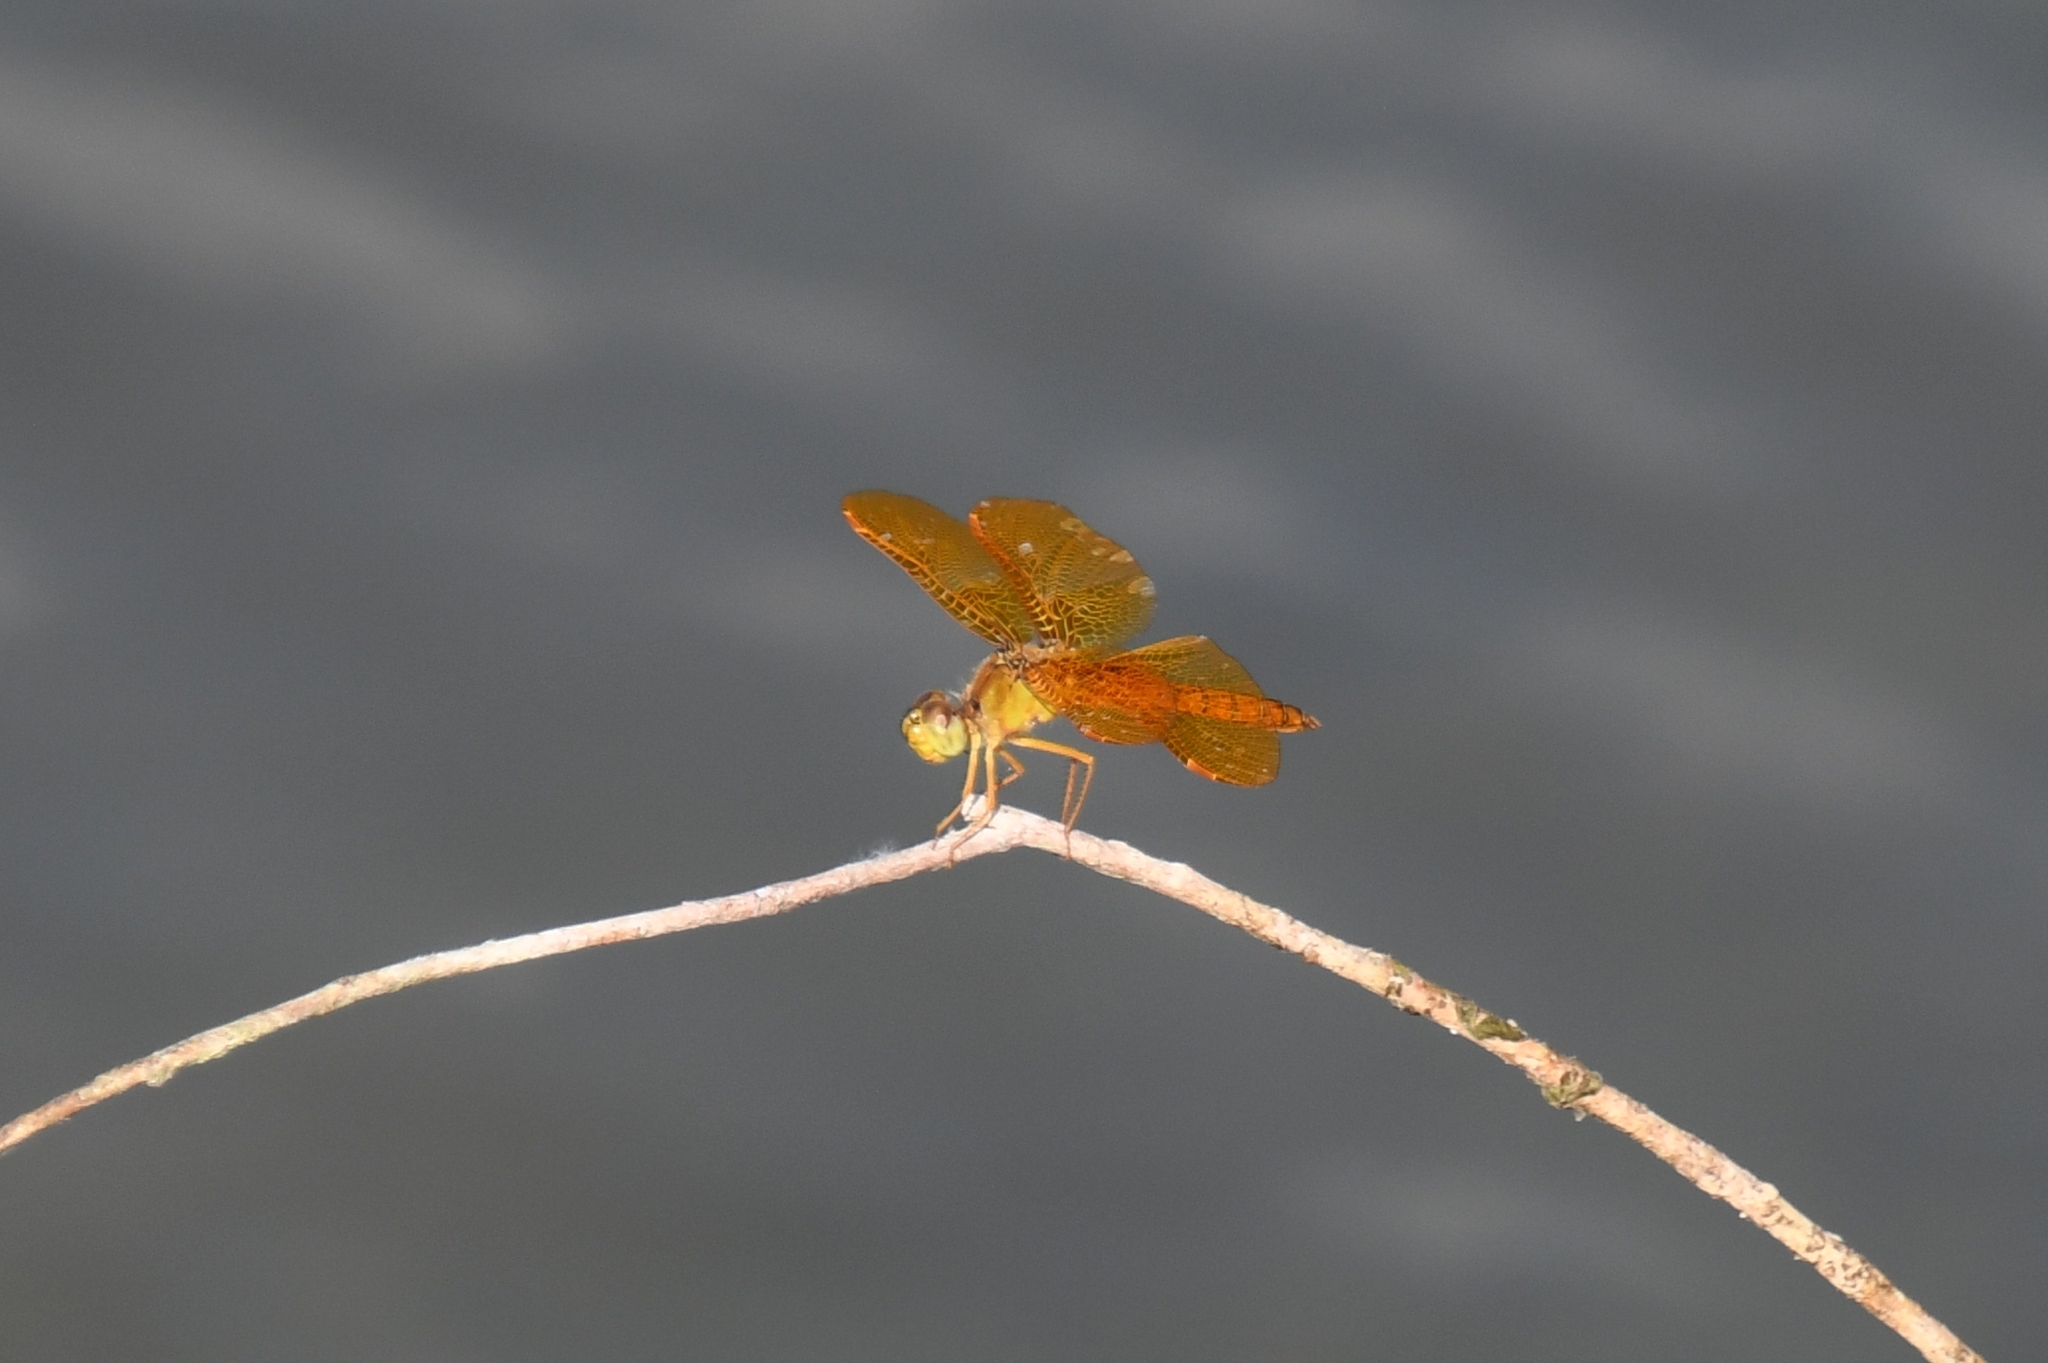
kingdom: Animalia
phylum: Arthropoda
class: Insecta
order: Odonata
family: Libellulidae
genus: Perithemis
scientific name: Perithemis intensa
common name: Mexican amberwing
